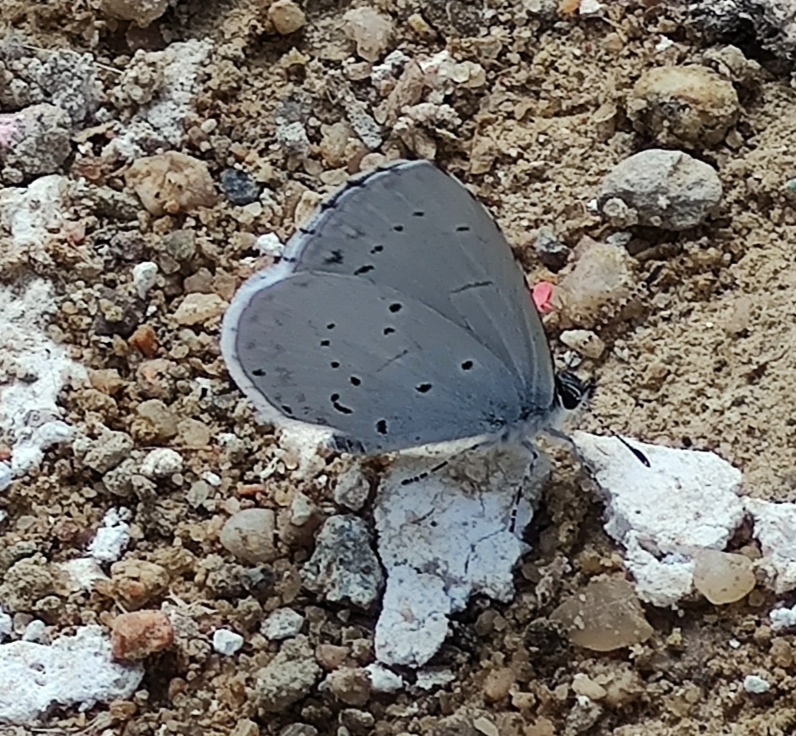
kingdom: Animalia
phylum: Arthropoda
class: Insecta
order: Lepidoptera
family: Lycaenidae
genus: Celastrina
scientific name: Celastrina argiolus
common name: Holly blue
